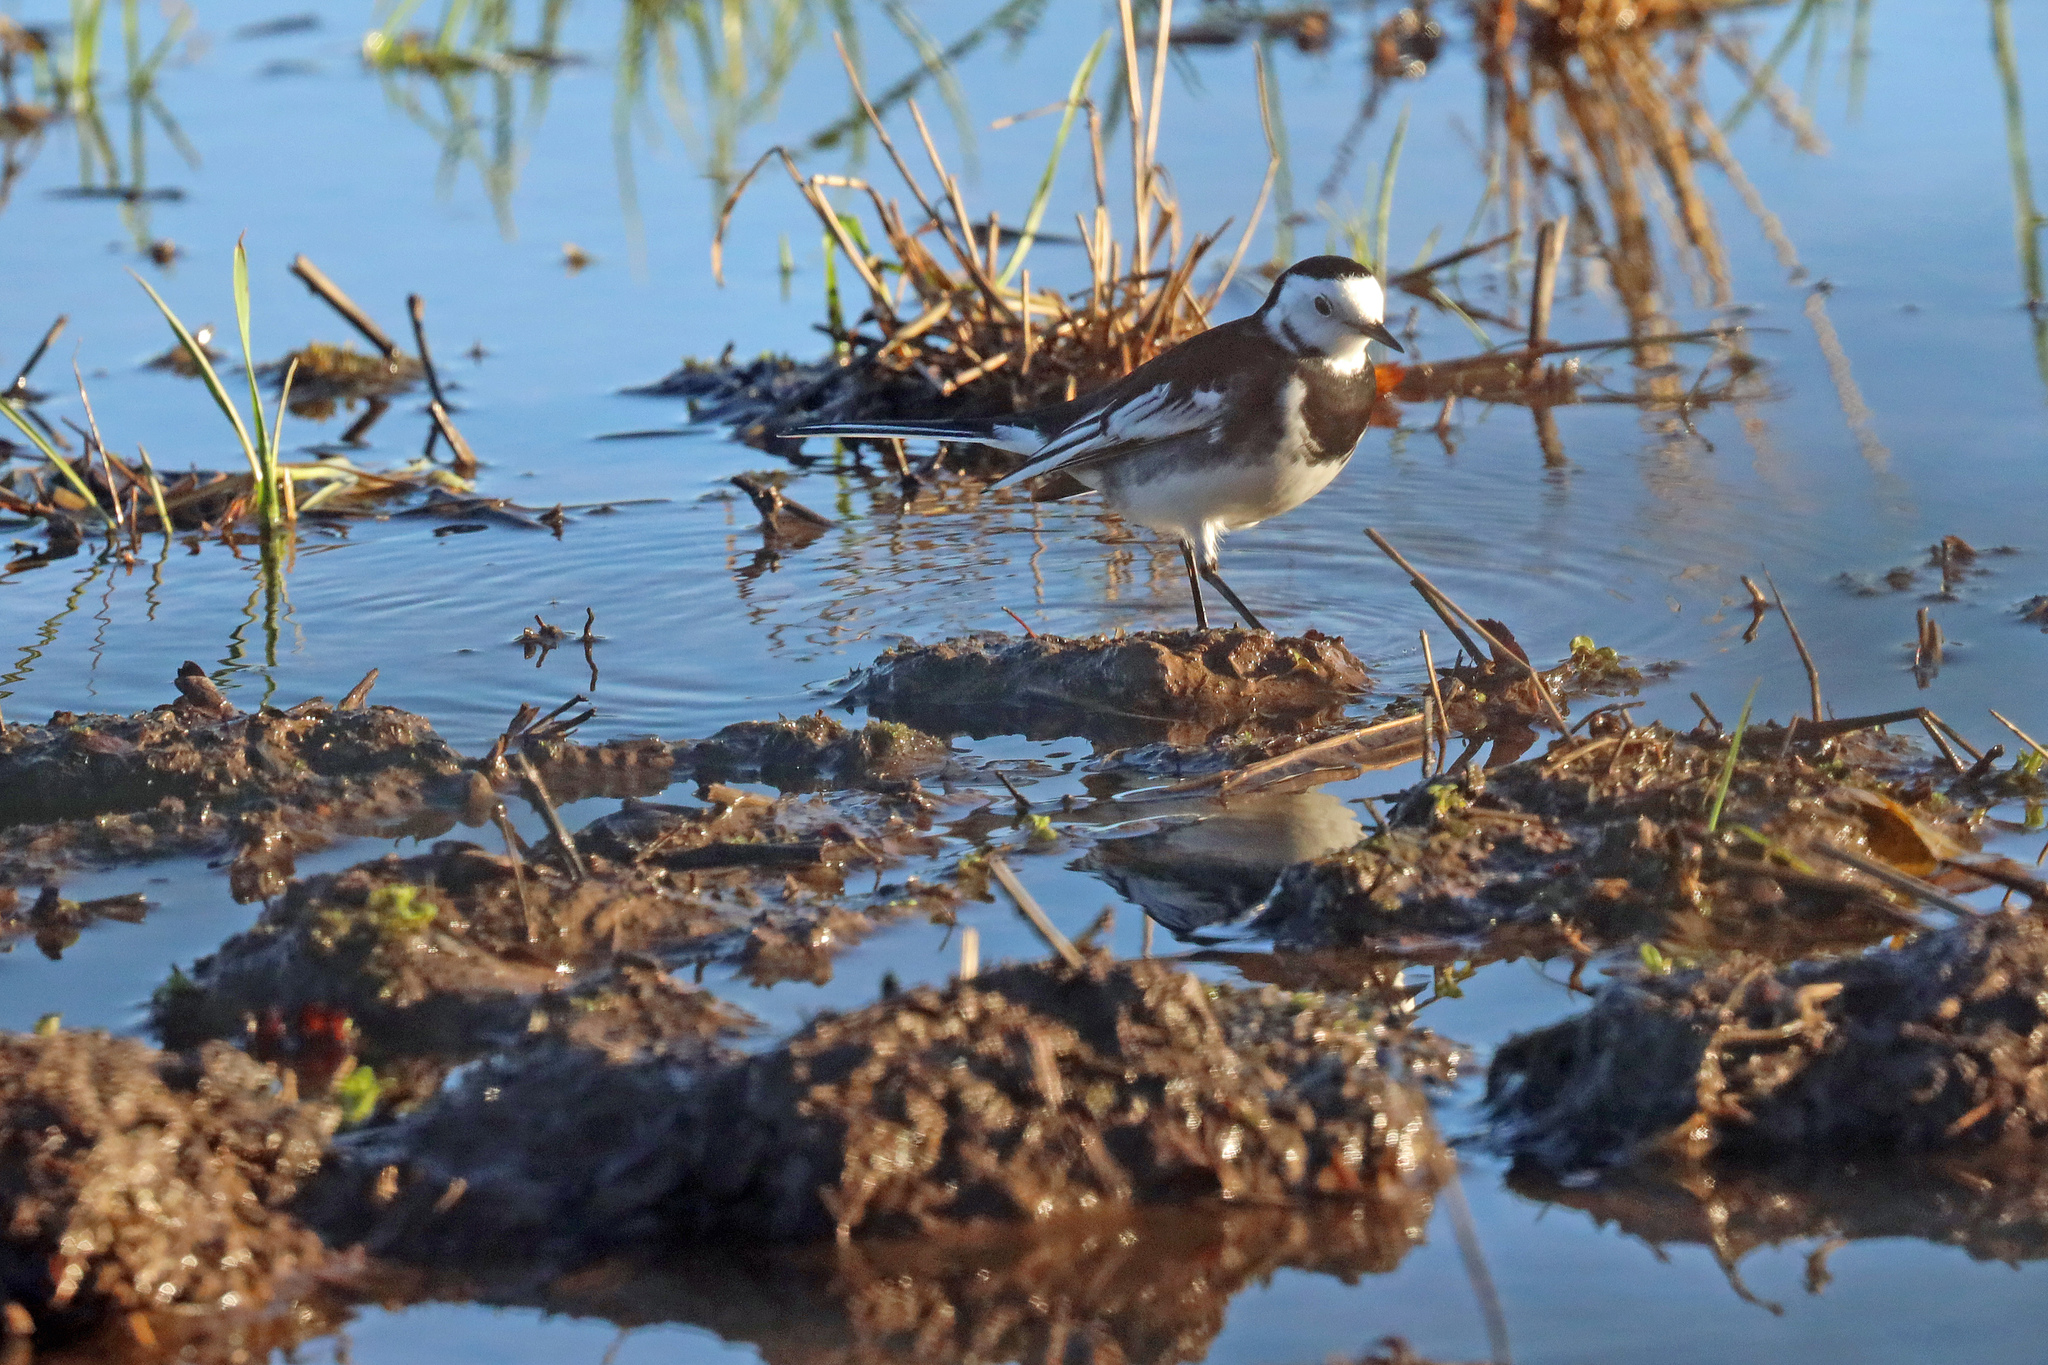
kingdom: Animalia
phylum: Chordata
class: Aves
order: Passeriformes
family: Motacillidae
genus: Motacilla
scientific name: Motacilla alba
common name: White wagtail
